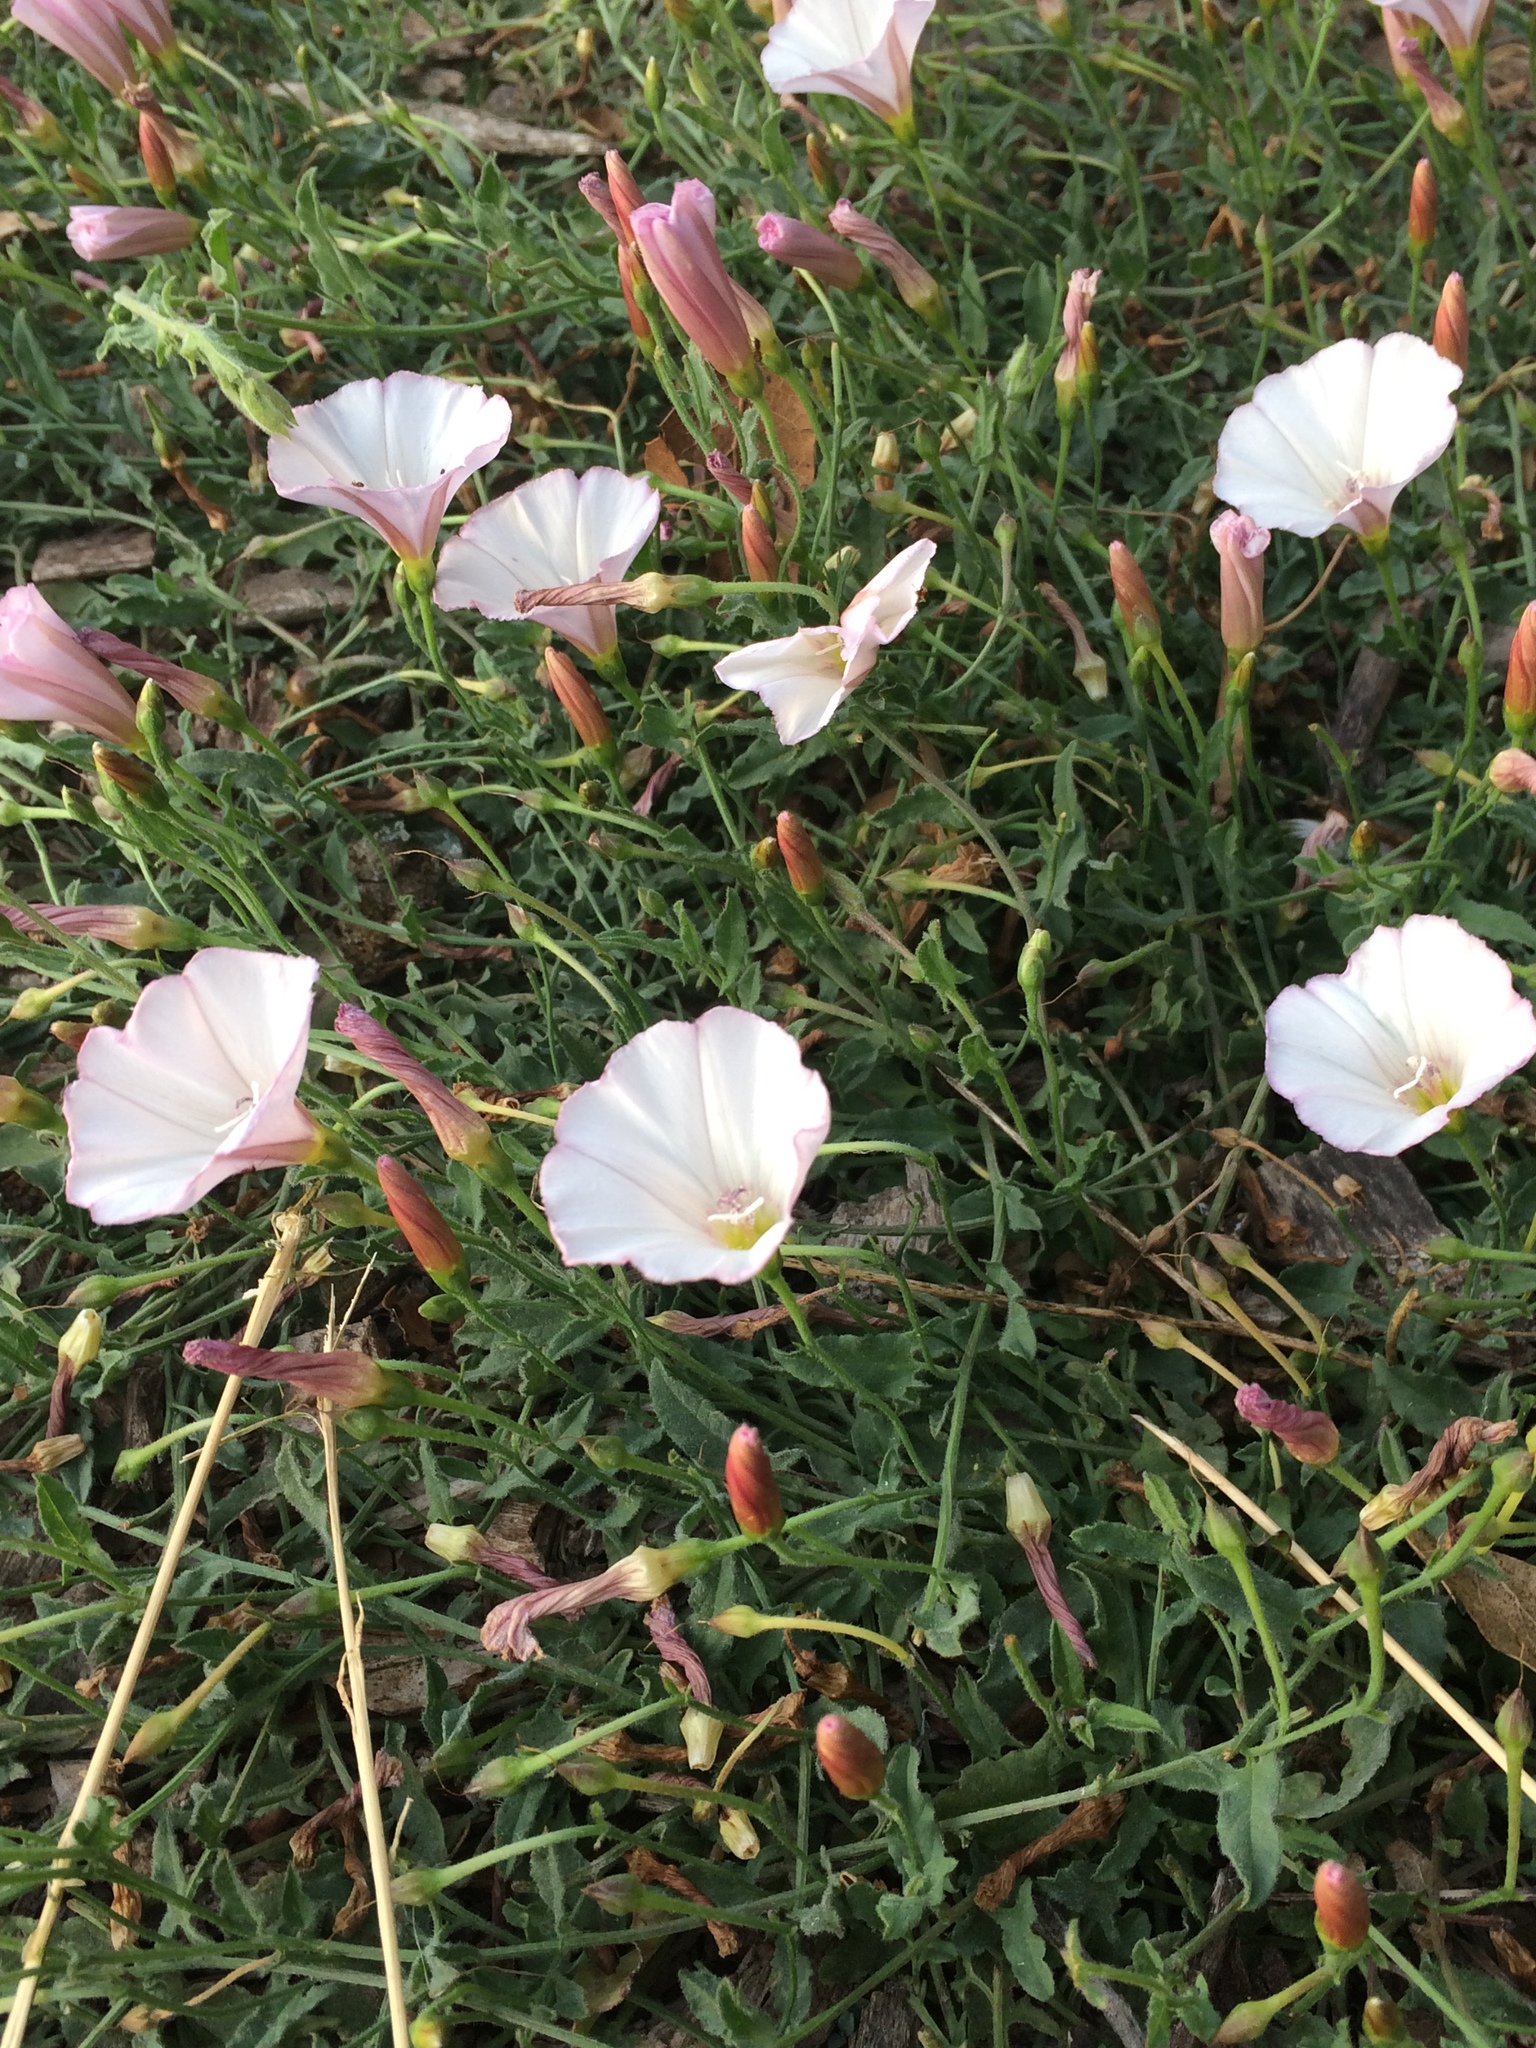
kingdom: Plantae
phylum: Tracheophyta
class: Magnoliopsida
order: Solanales
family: Convolvulaceae
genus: Convolvulus
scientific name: Convolvulus arvensis
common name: Field bindweed
